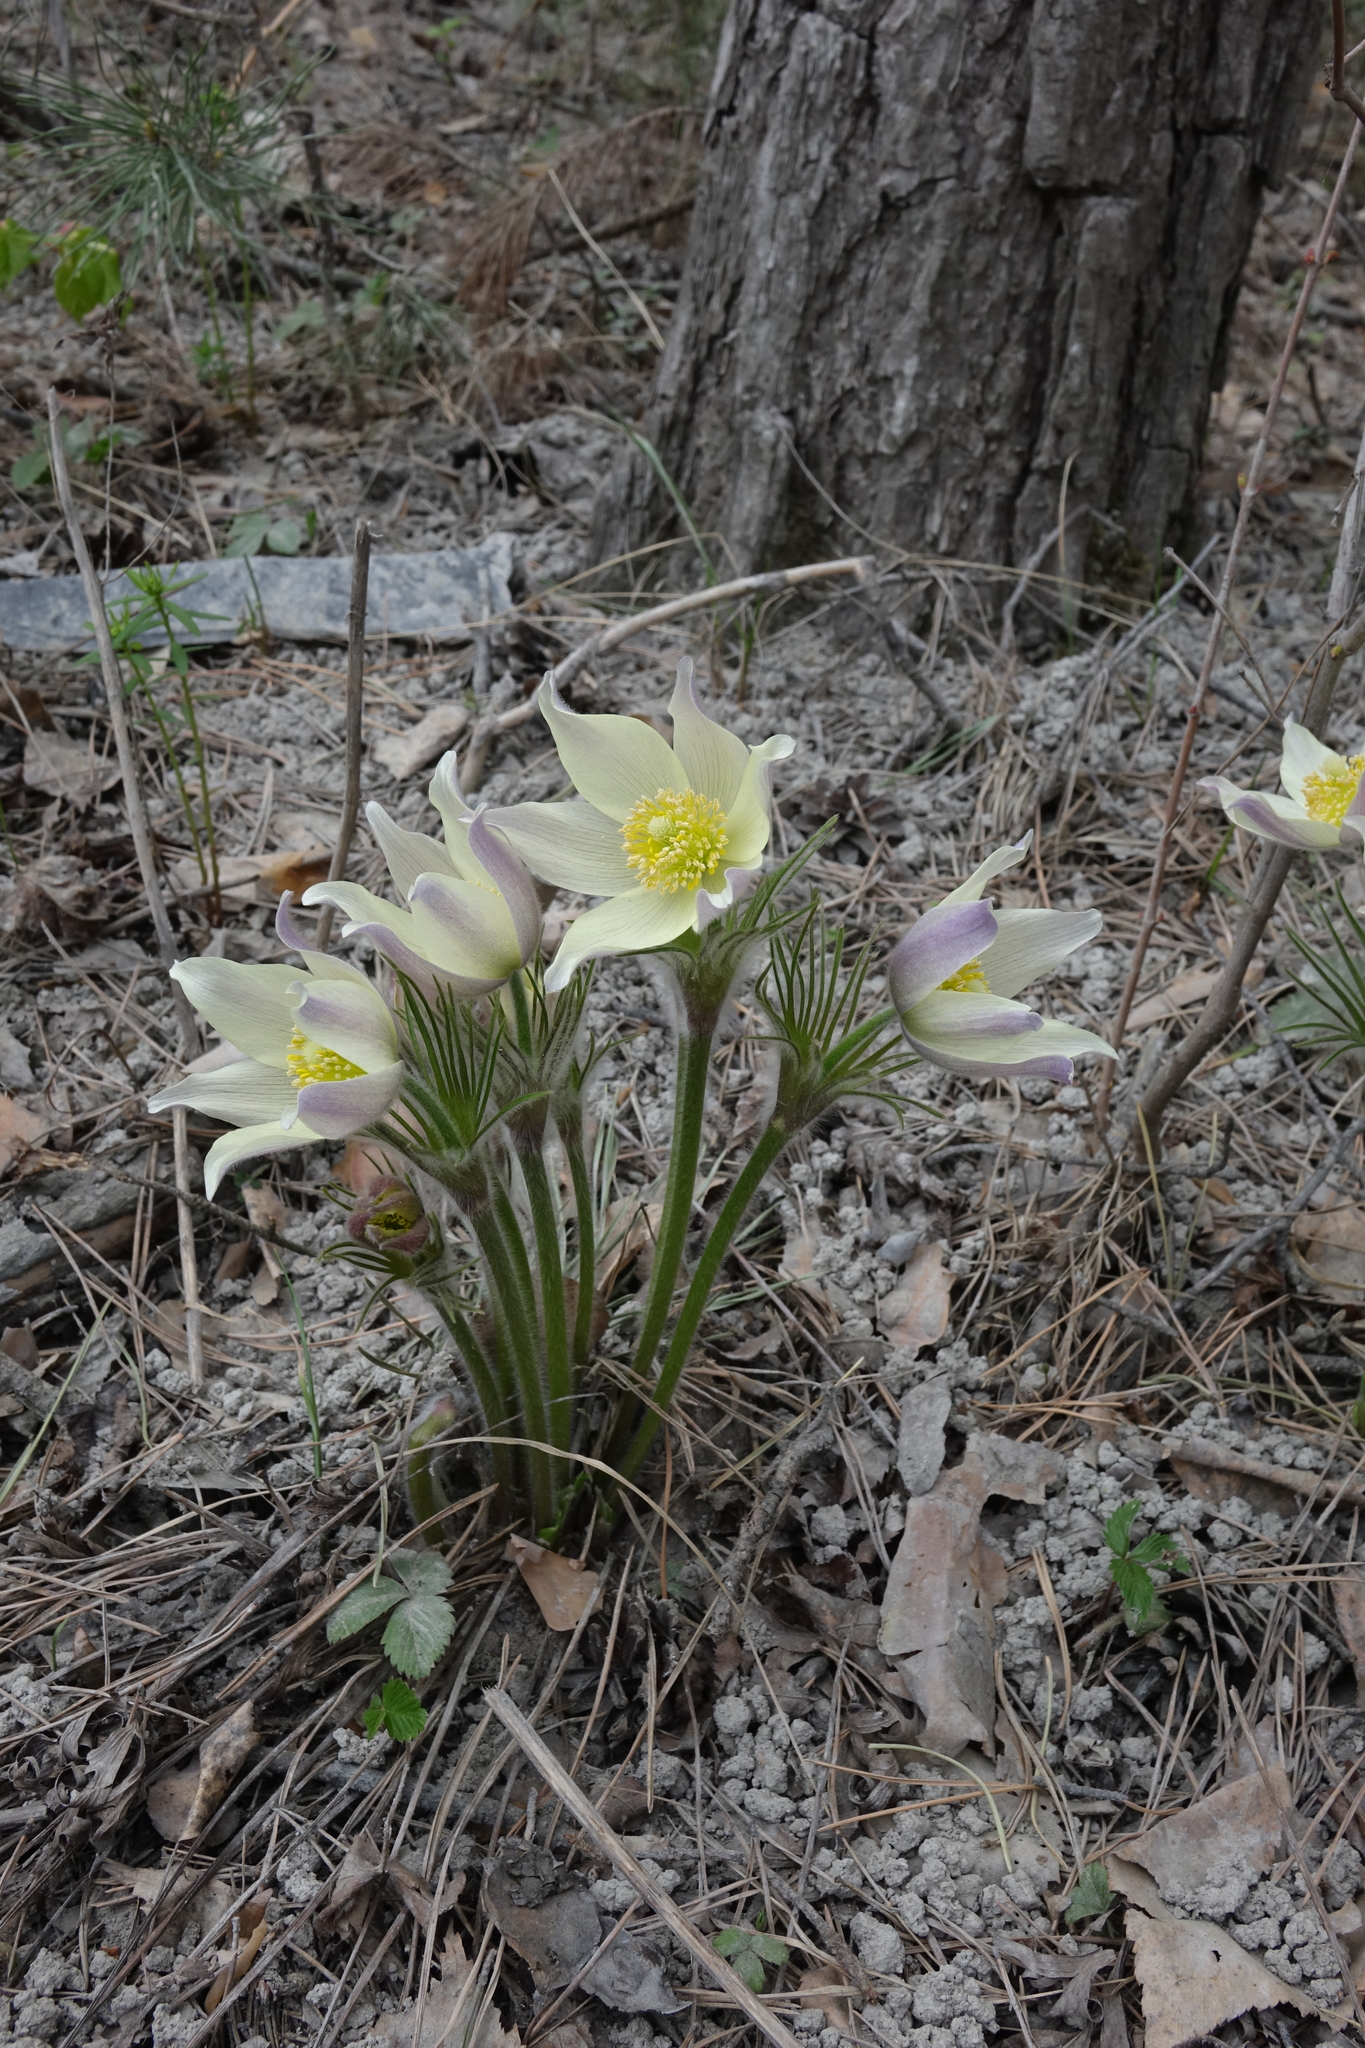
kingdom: Plantae
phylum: Tracheophyta
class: Magnoliopsida
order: Ranunculales
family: Ranunculaceae
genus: Pulsatilla
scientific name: Pulsatilla patens
